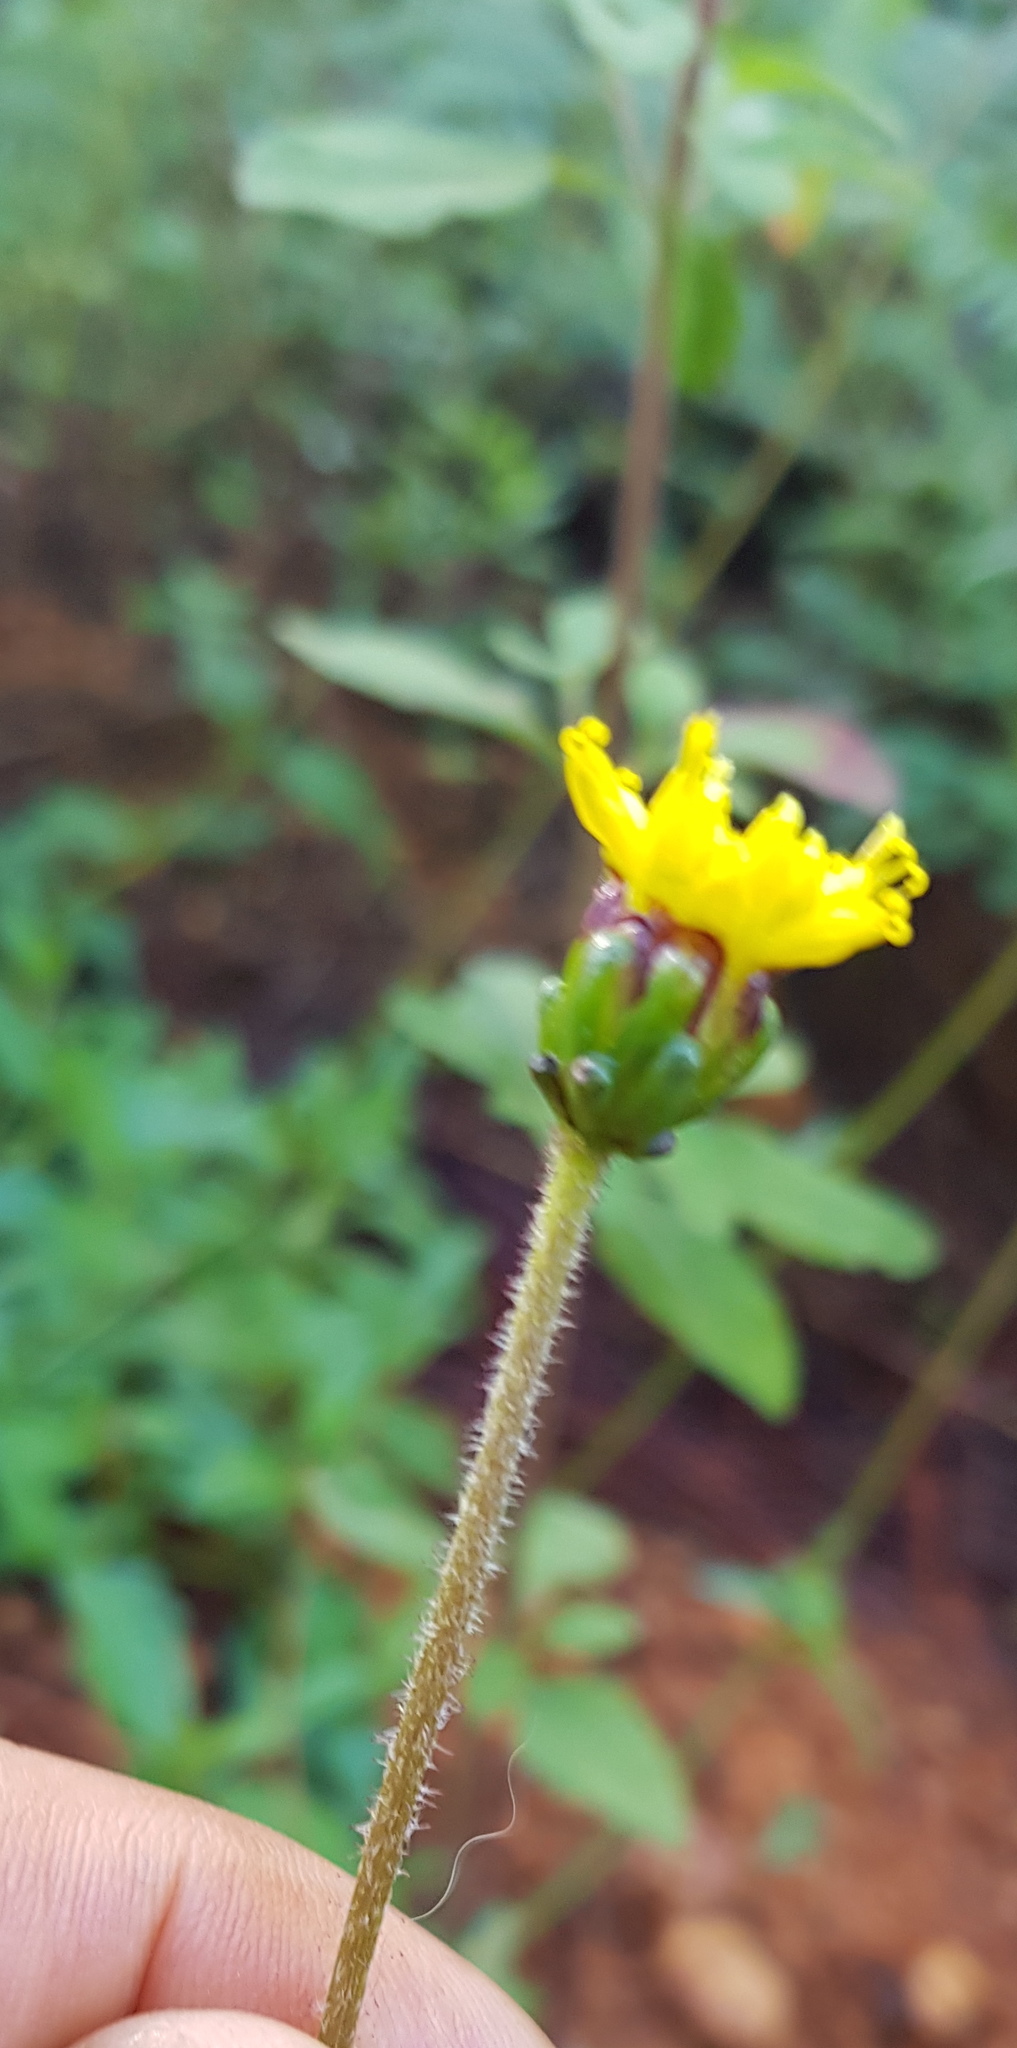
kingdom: Plantae
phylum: Tracheophyta
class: Magnoliopsida
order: Asterales
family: Asteraceae
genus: Tridax
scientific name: Tridax brachylepis
